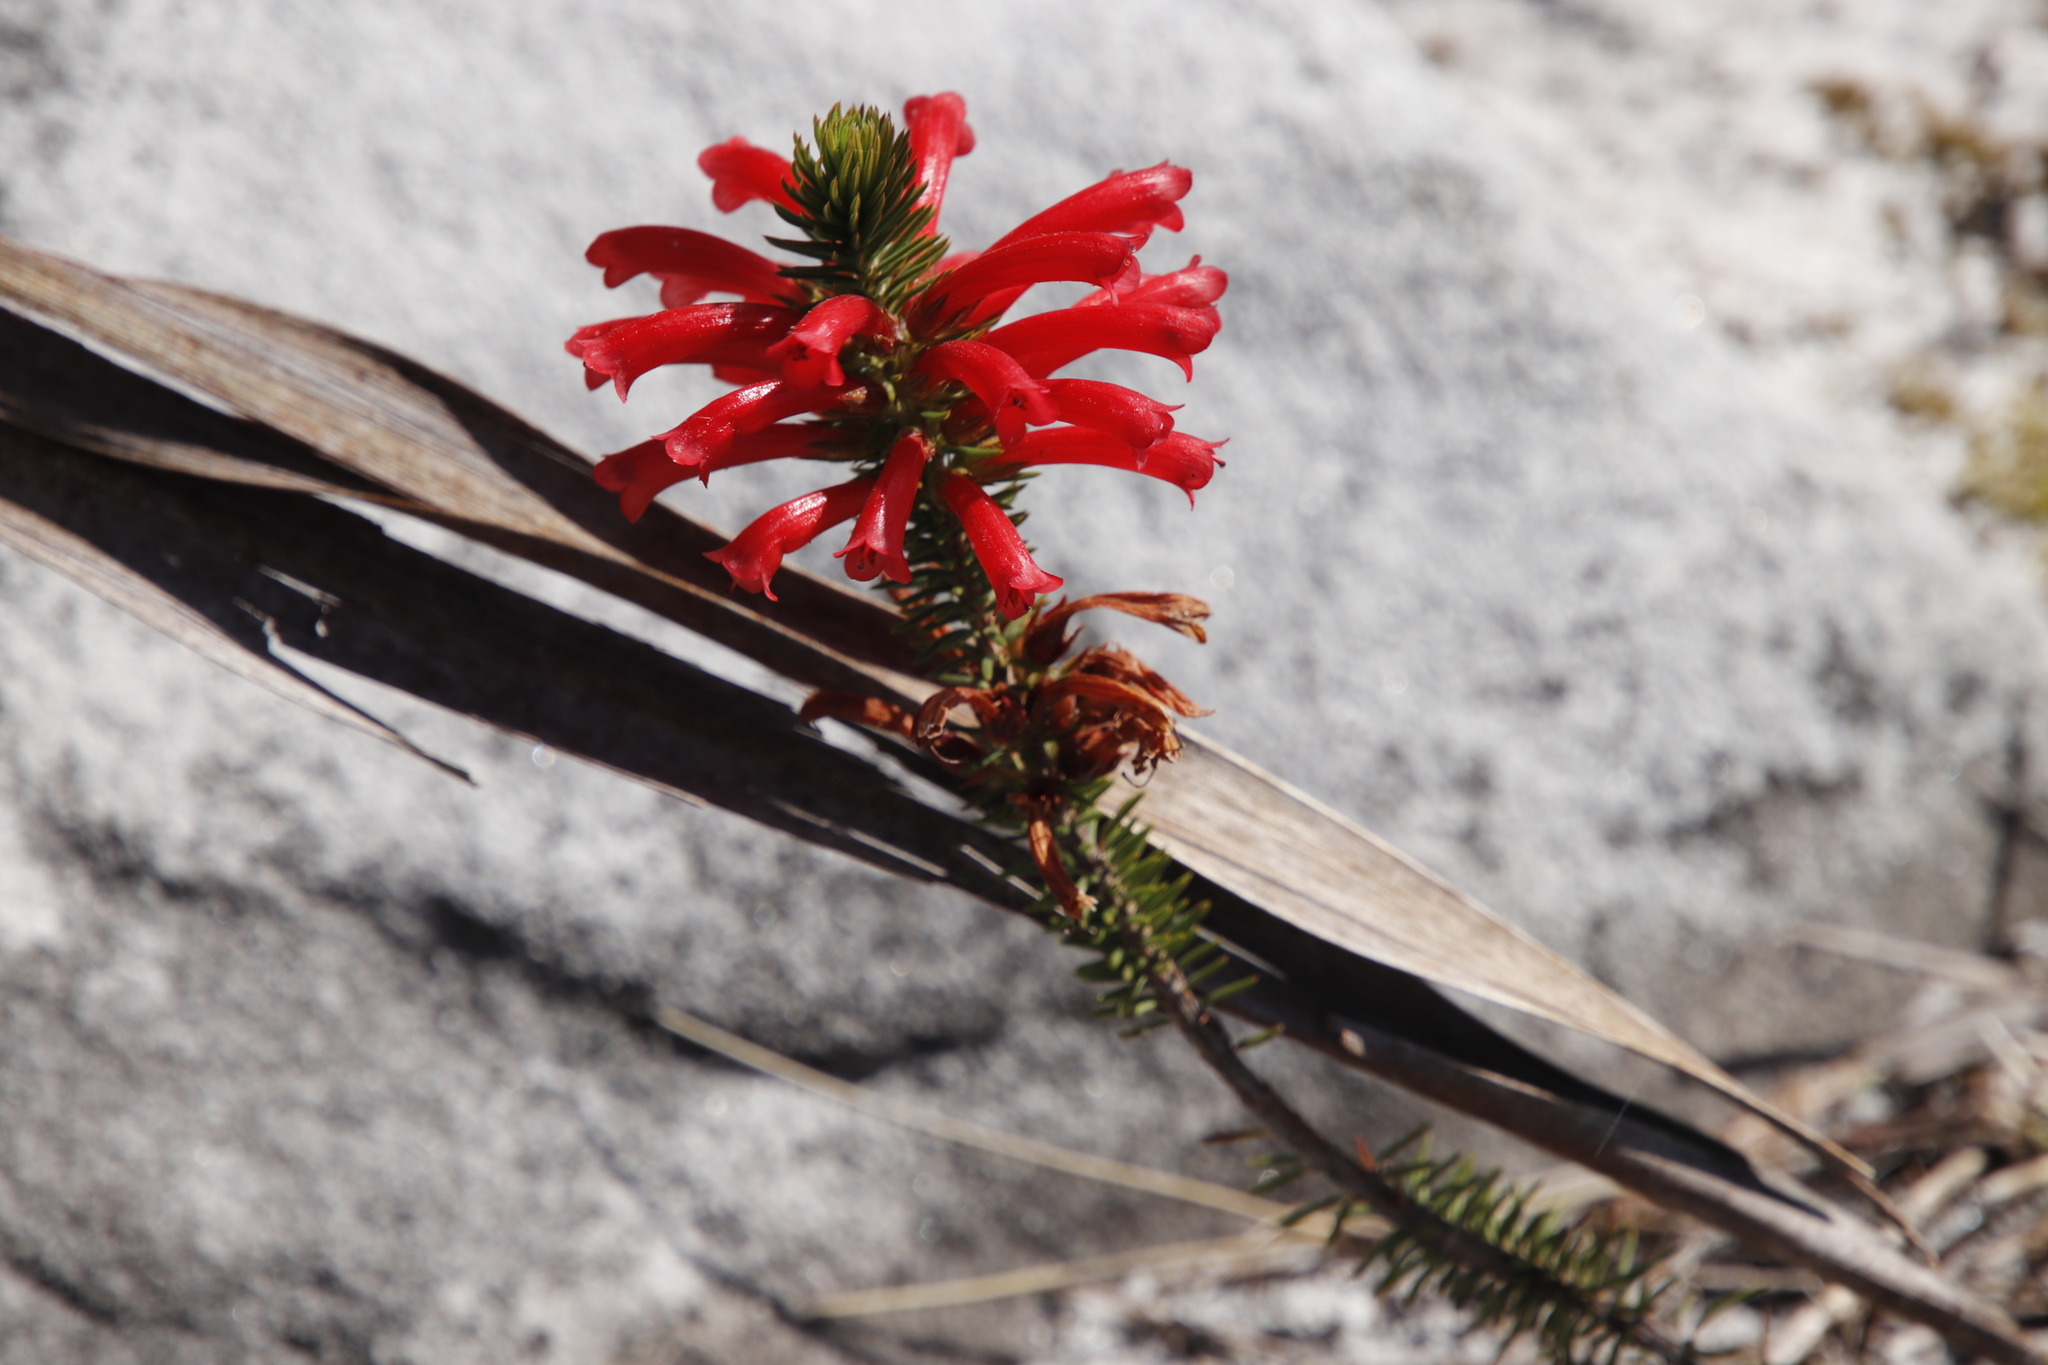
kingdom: Plantae
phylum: Tracheophyta
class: Magnoliopsida
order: Ericales
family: Ericaceae
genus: Erica
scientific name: Erica abietina
